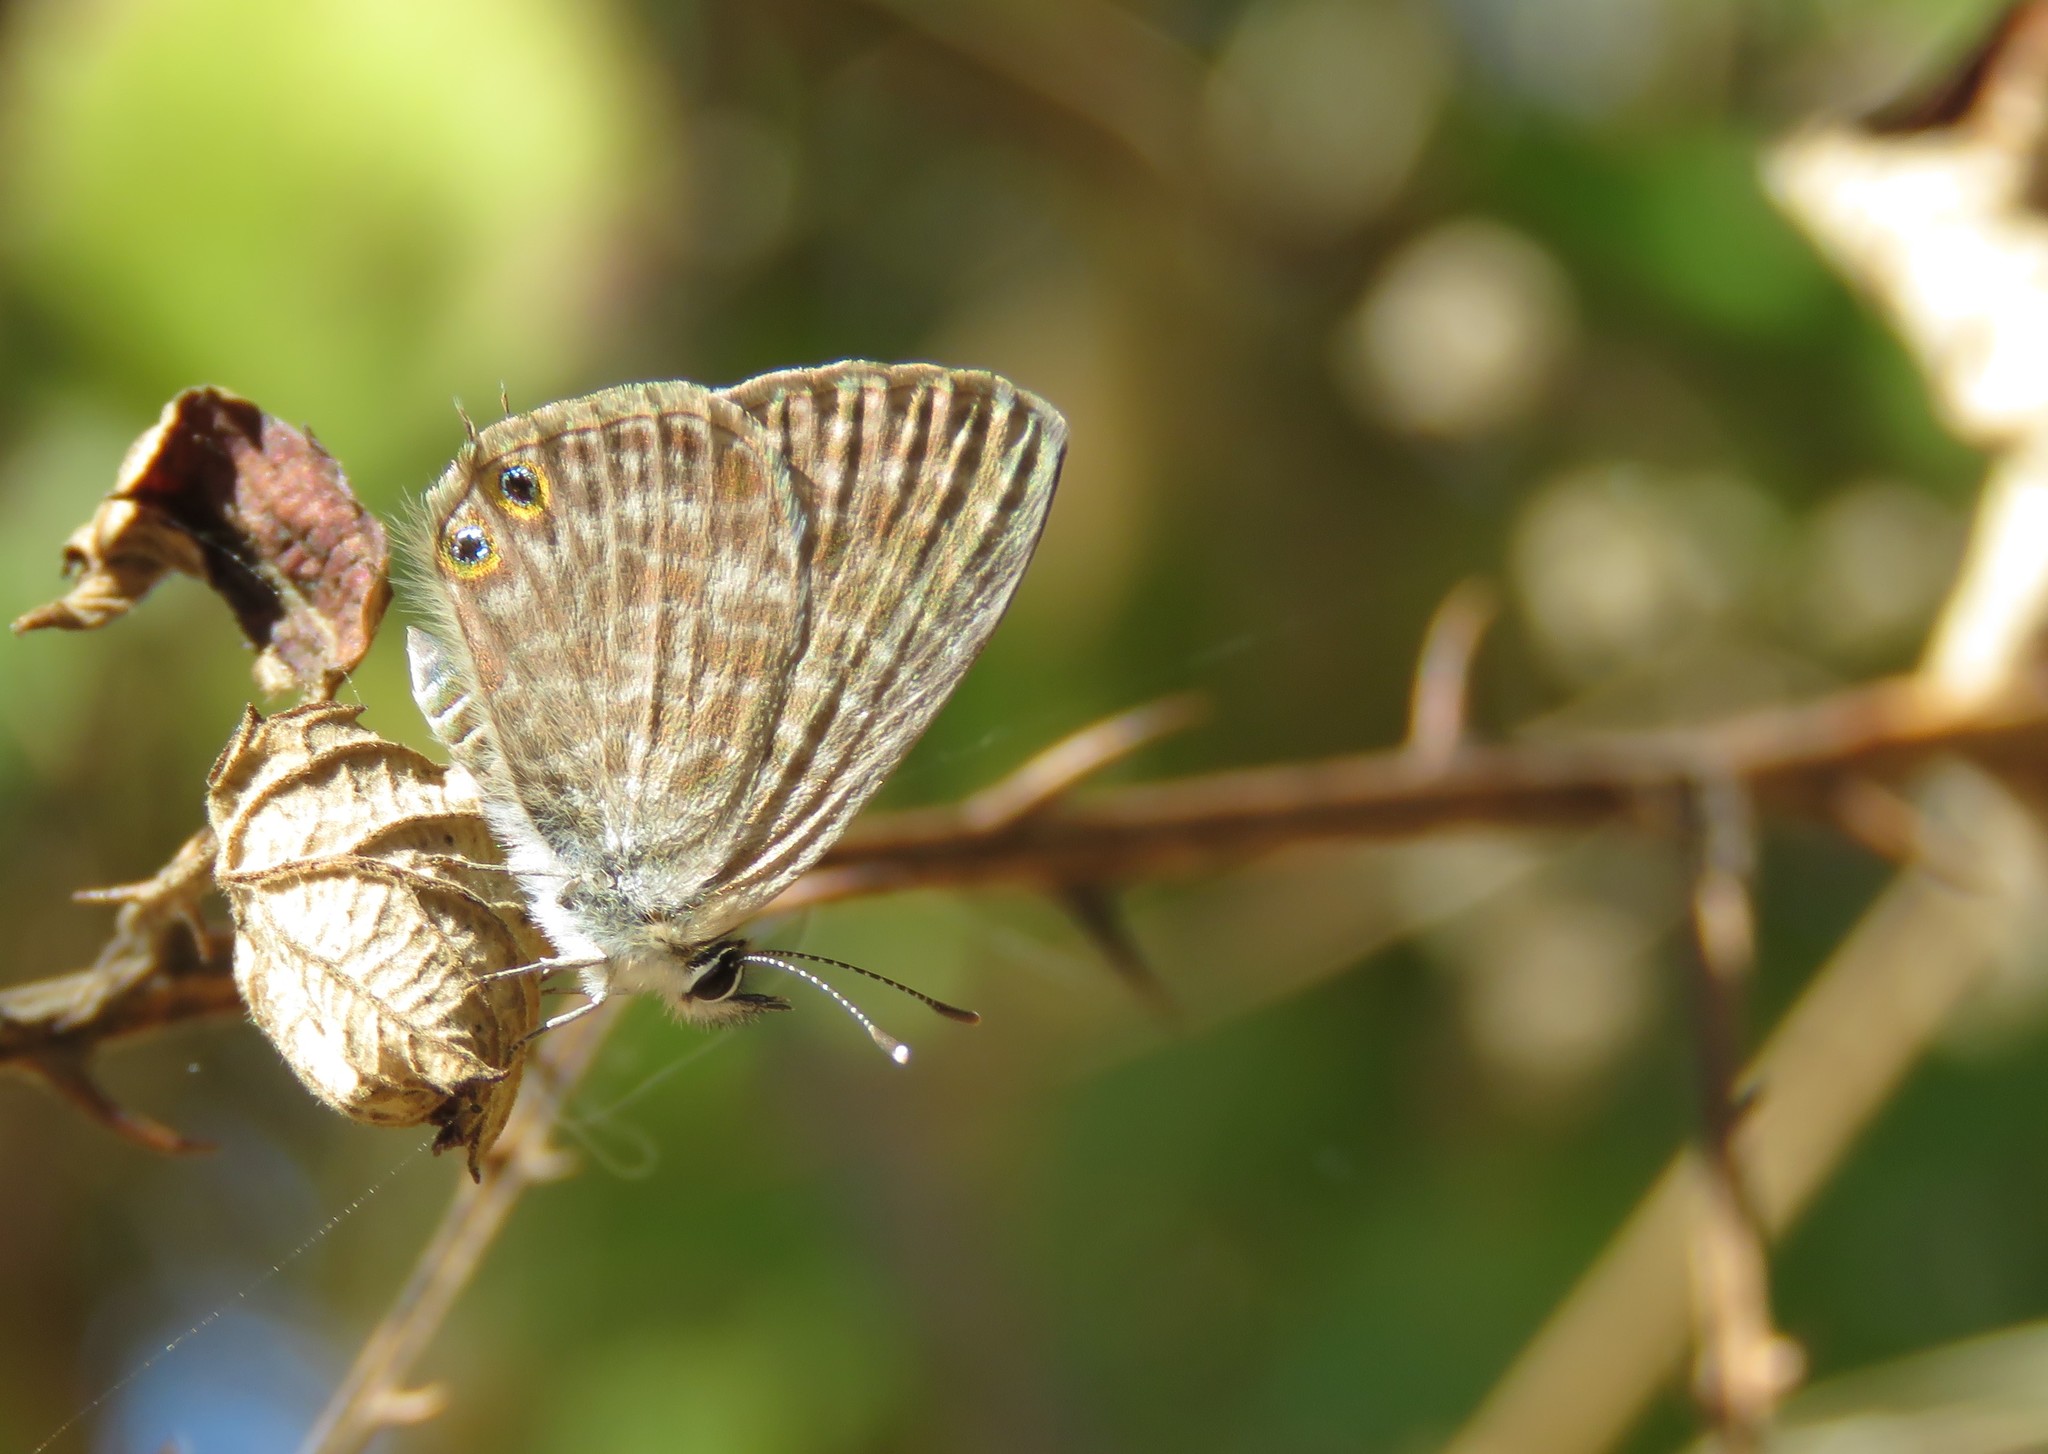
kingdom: Animalia
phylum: Arthropoda
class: Insecta
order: Lepidoptera
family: Lycaenidae
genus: Leptotes
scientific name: Leptotes pirithous
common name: Lang's short-tailed blue
